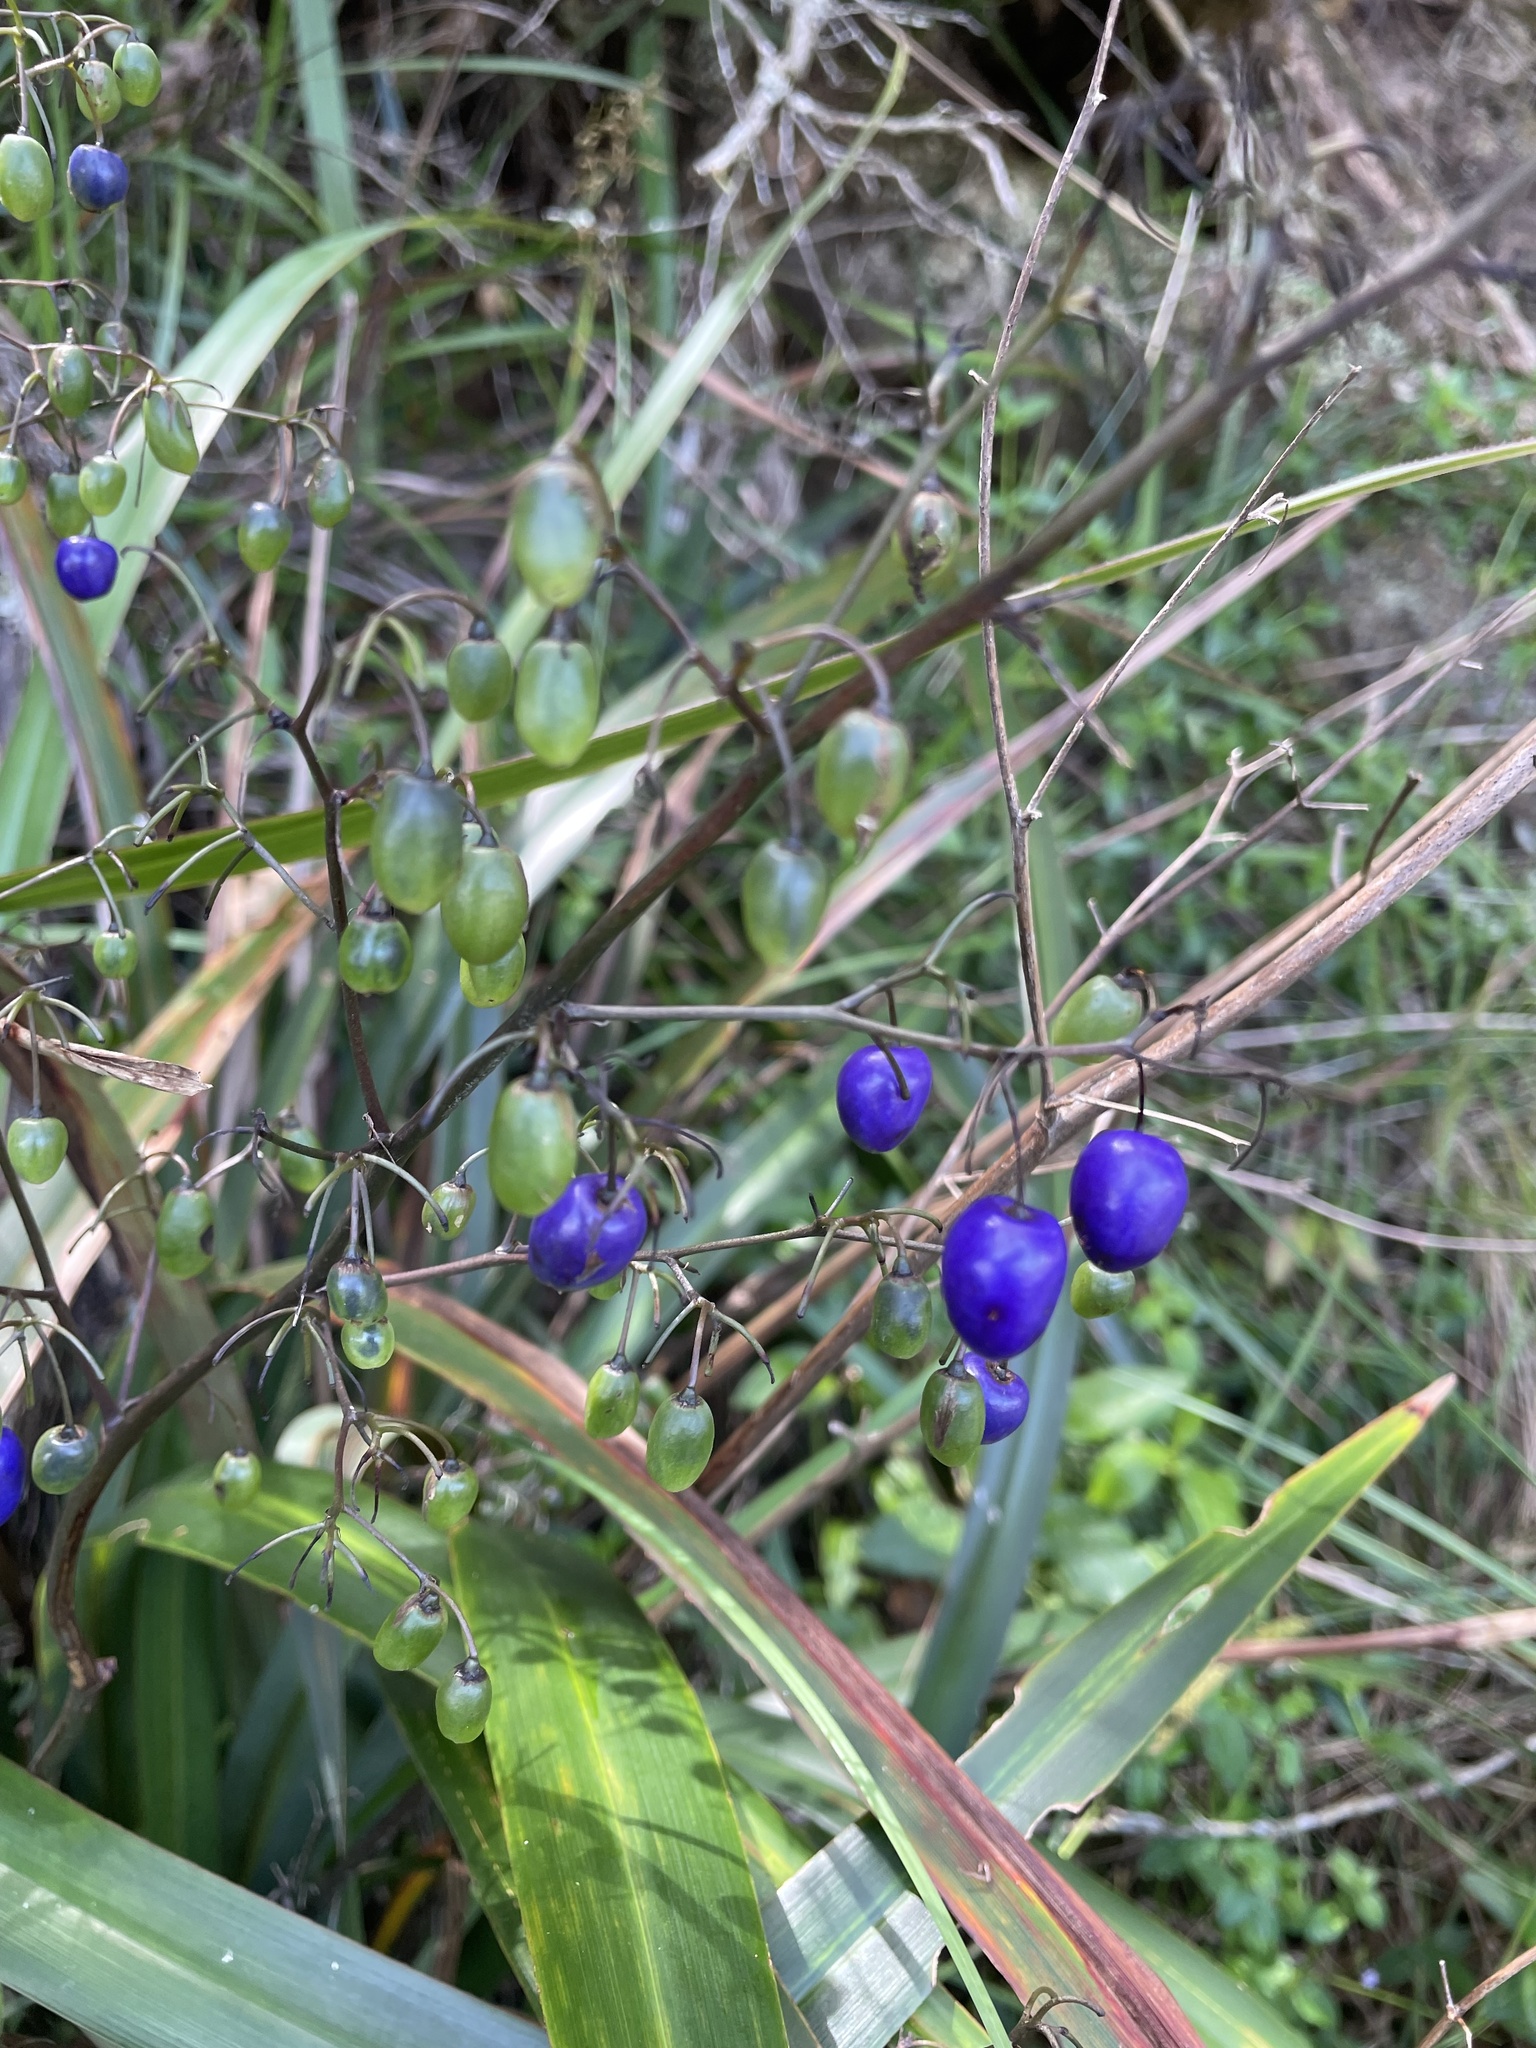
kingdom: Plantae
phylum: Tracheophyta
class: Liliopsida
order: Asparagales
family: Asphodelaceae
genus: Dianella
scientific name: Dianella tasmanica
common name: Tasman flax-lily
